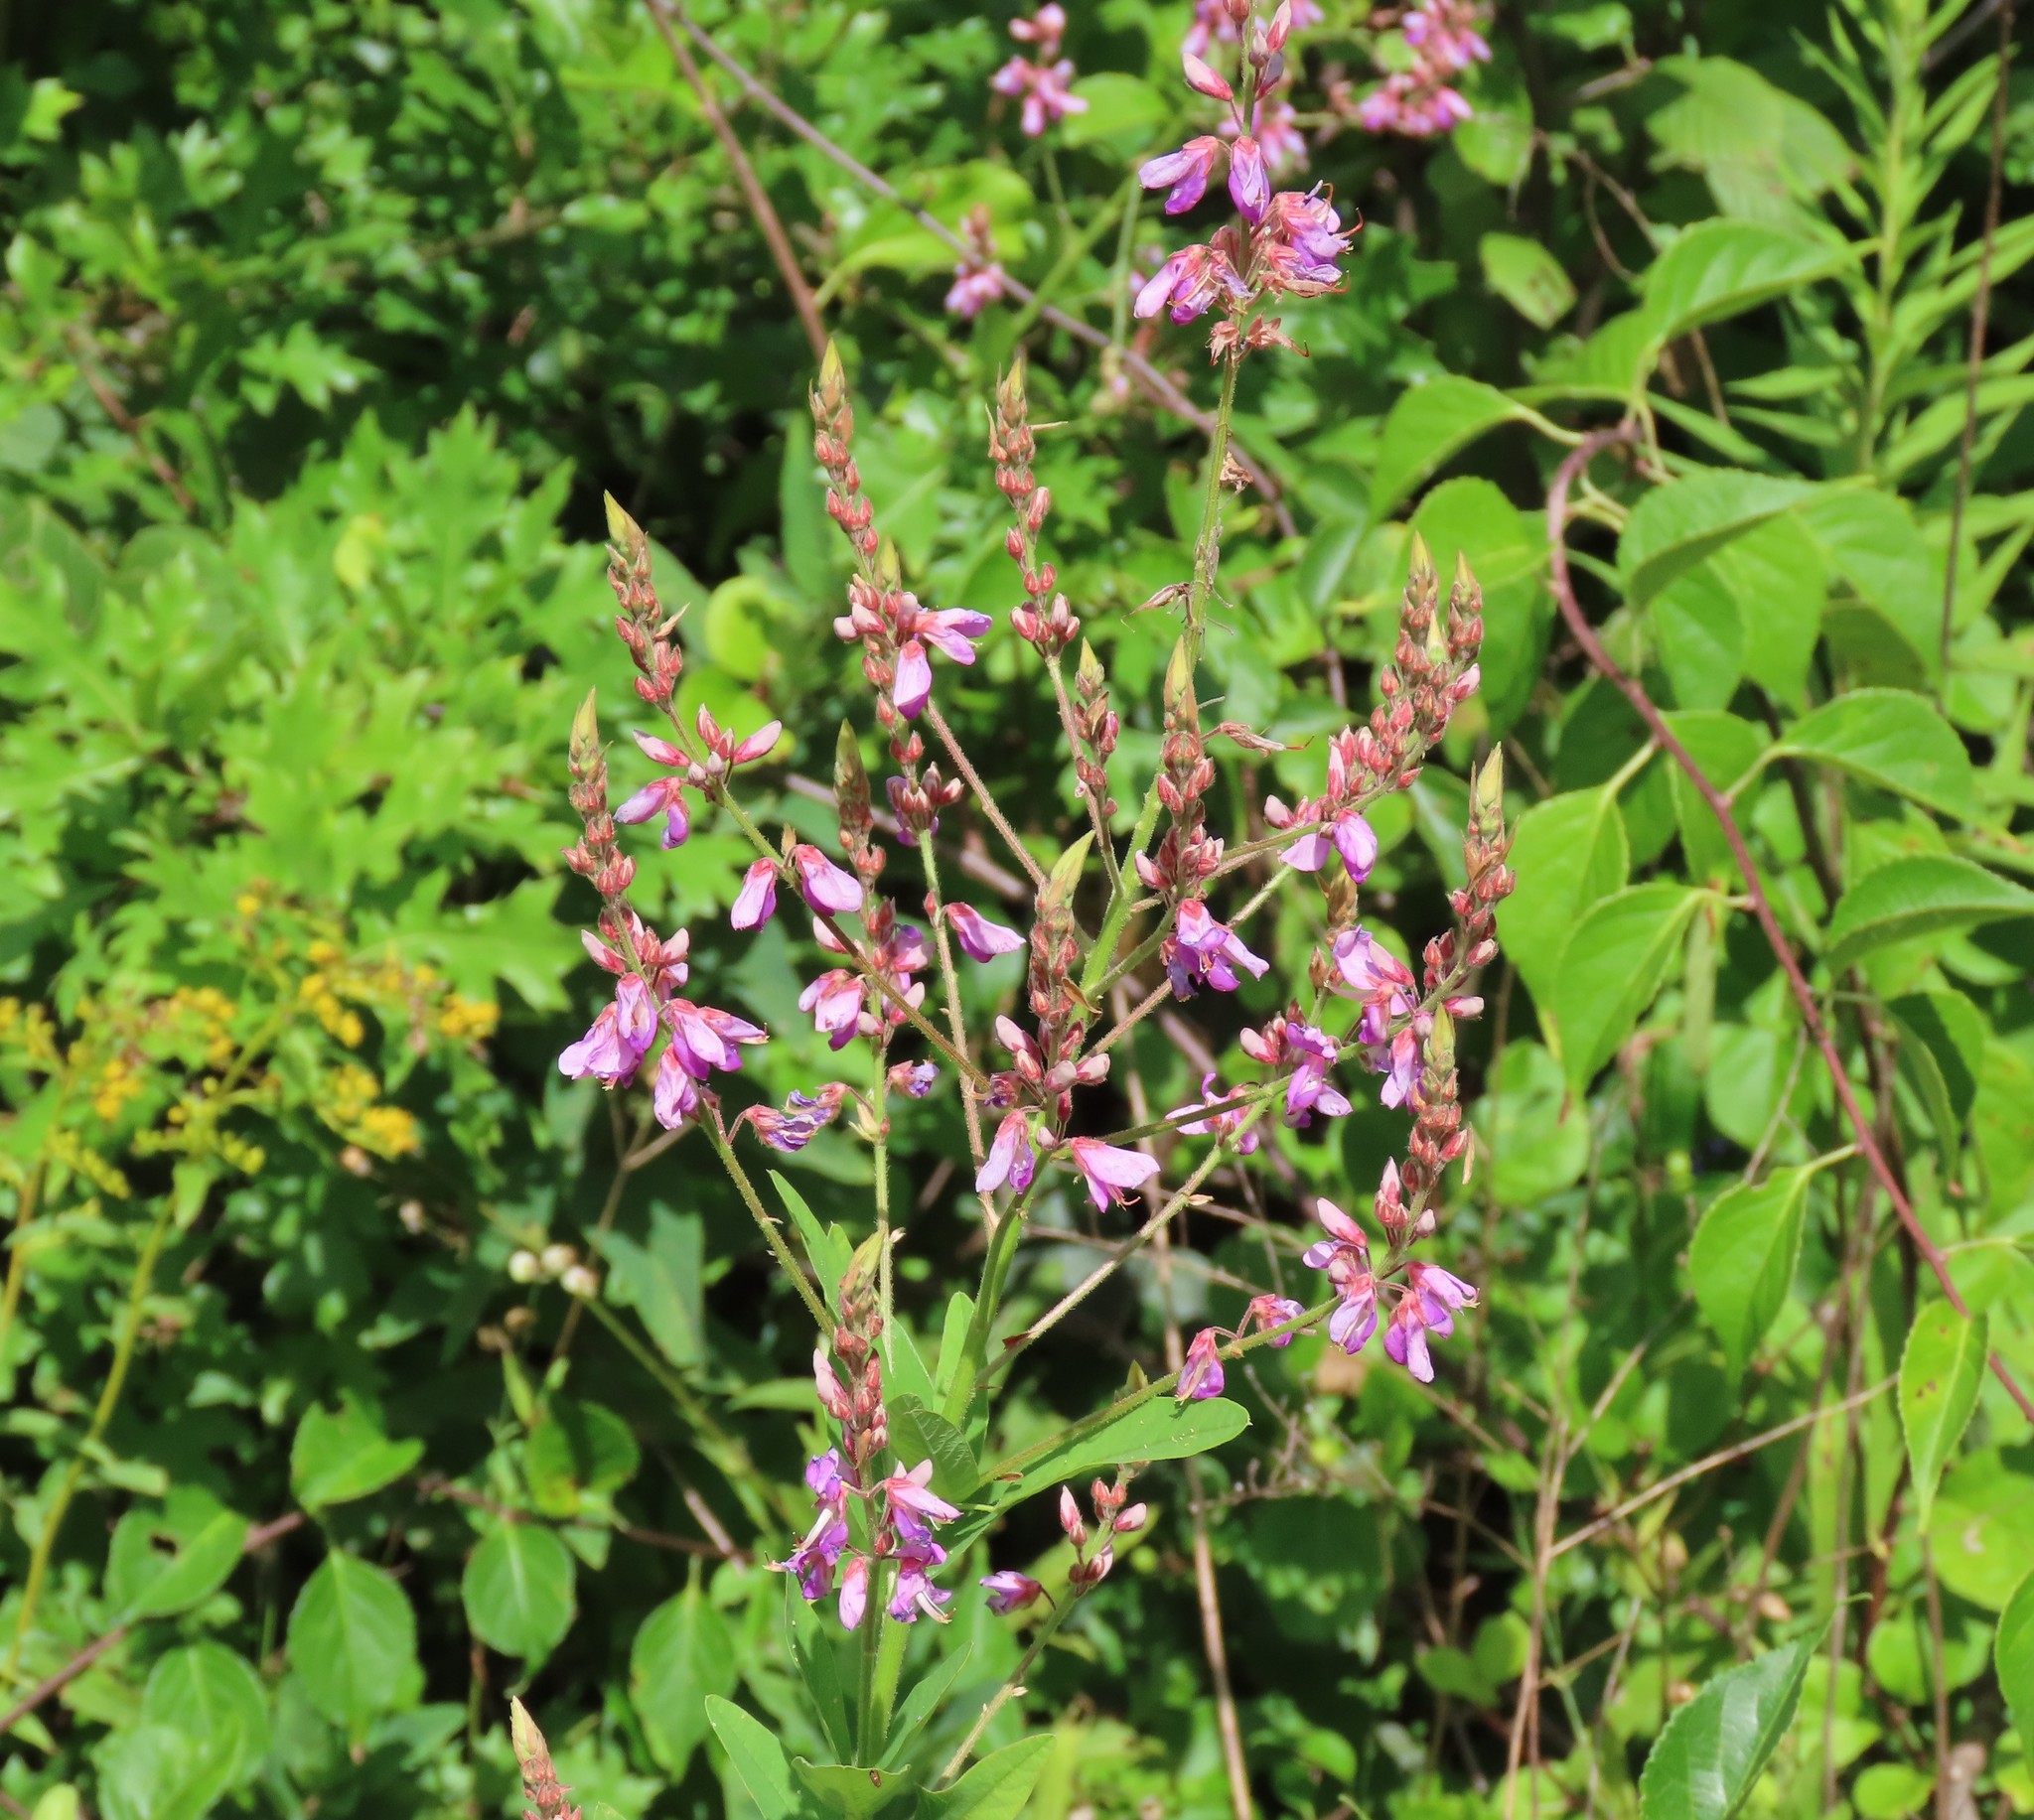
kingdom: Plantae
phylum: Tracheophyta
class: Magnoliopsida
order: Fabales
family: Fabaceae
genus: Desmodium
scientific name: Desmodium canadense
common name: Canada tick-trefoil
